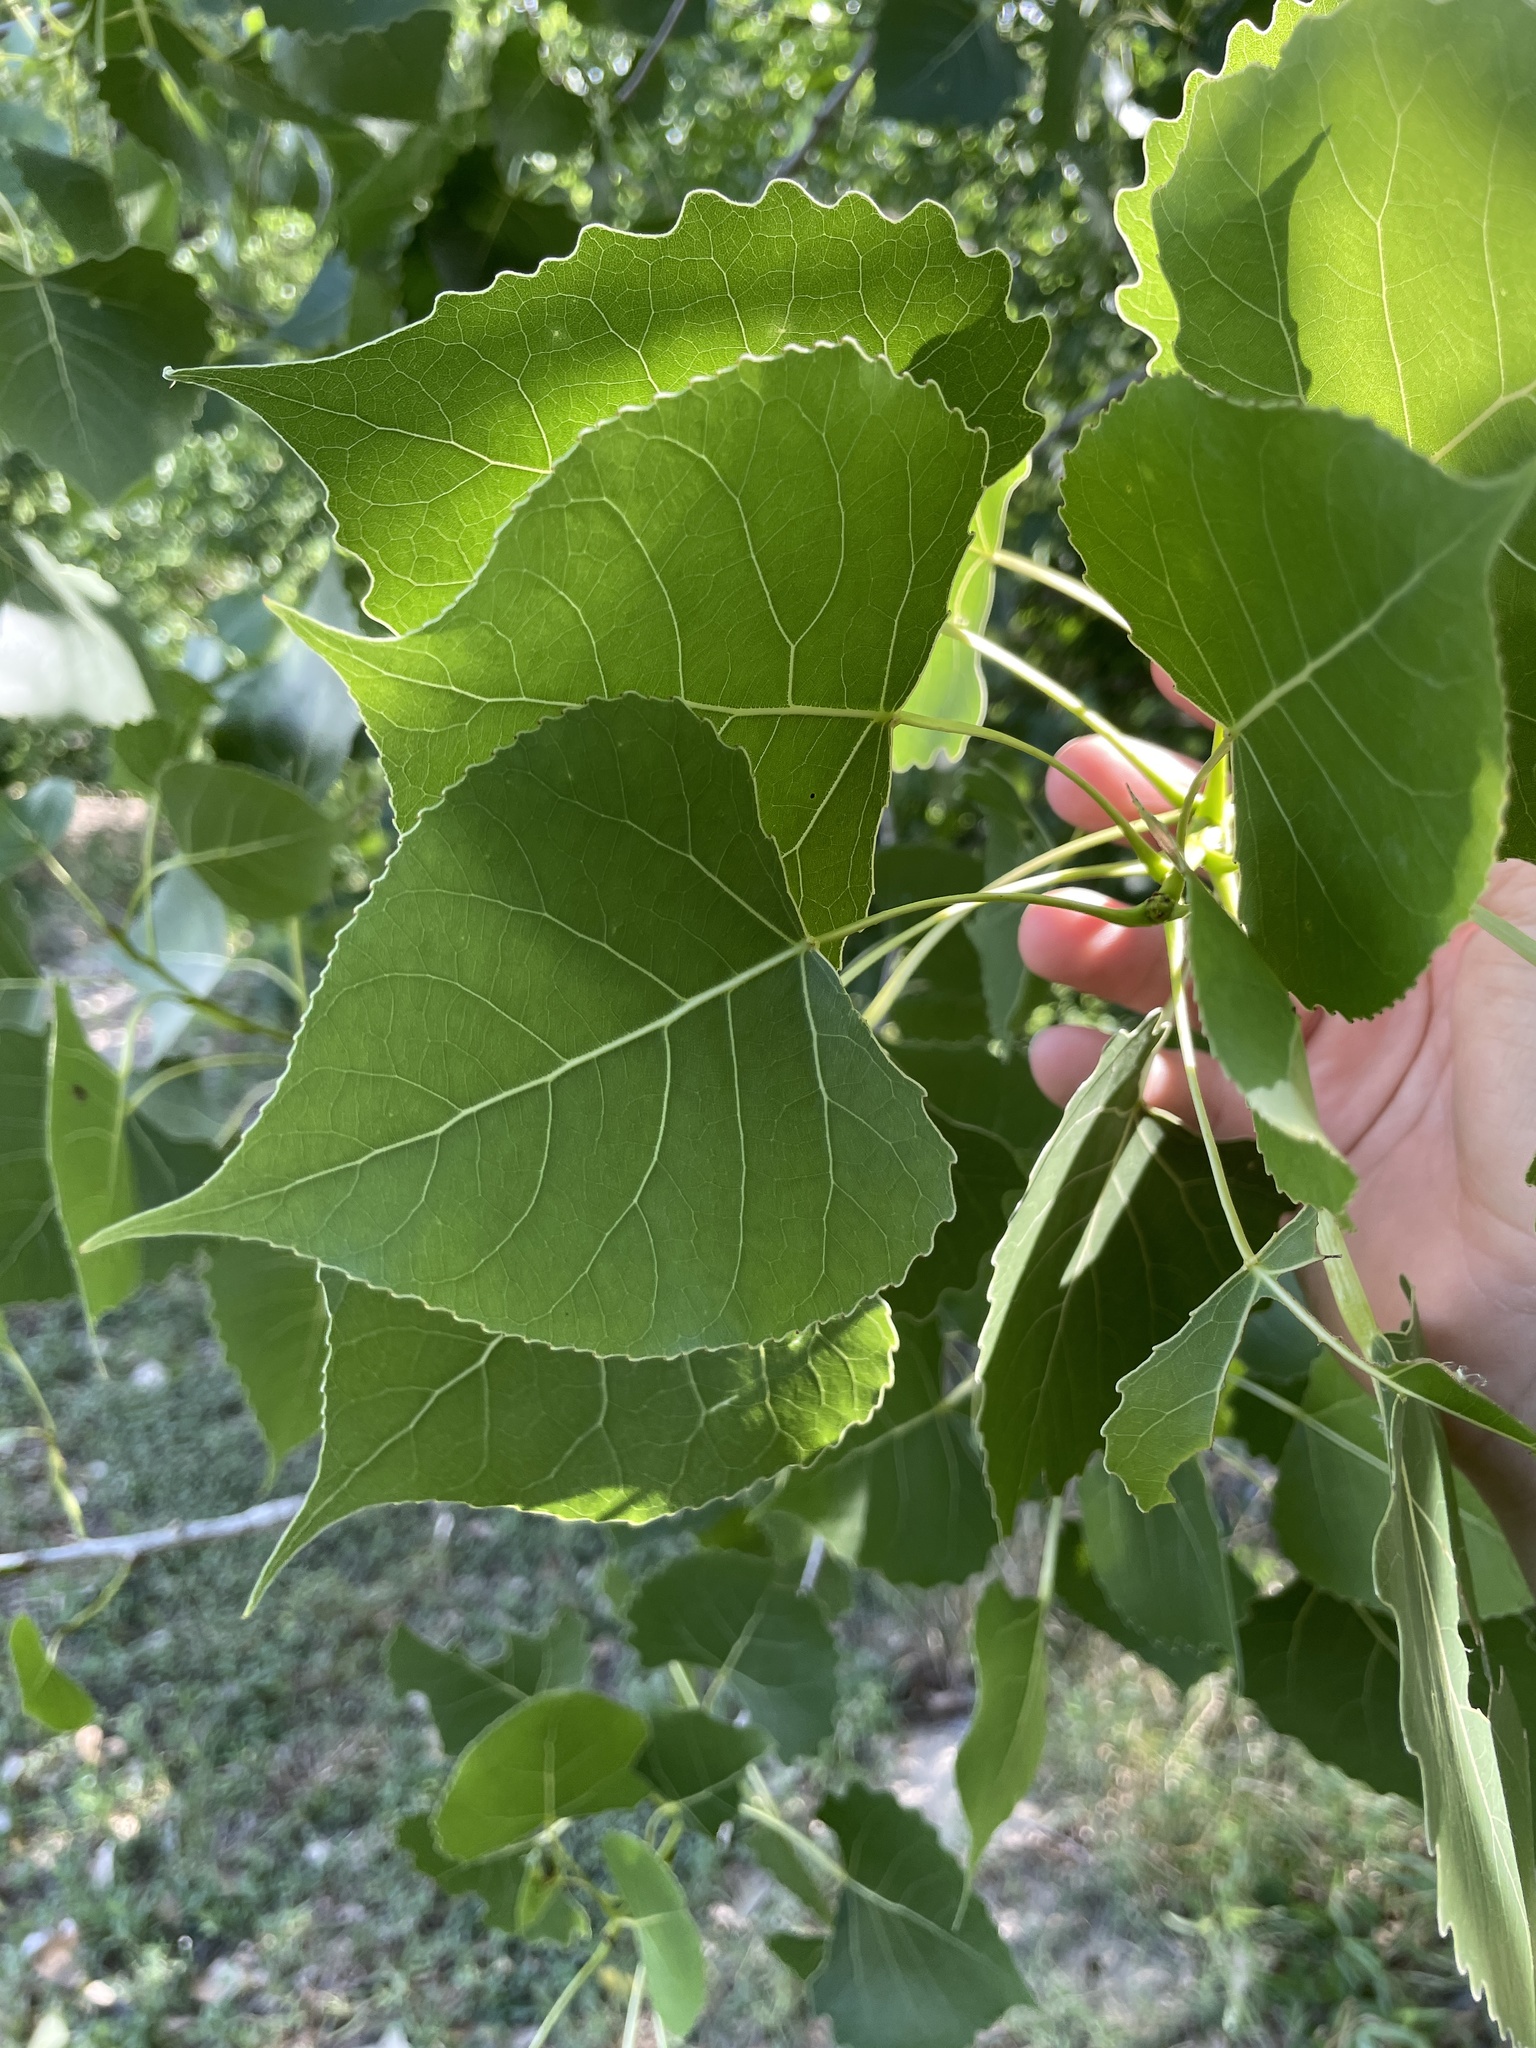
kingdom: Plantae
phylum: Tracheophyta
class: Magnoliopsida
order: Malpighiales
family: Salicaceae
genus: Populus
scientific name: Populus deltoides
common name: Eastern cottonwood
